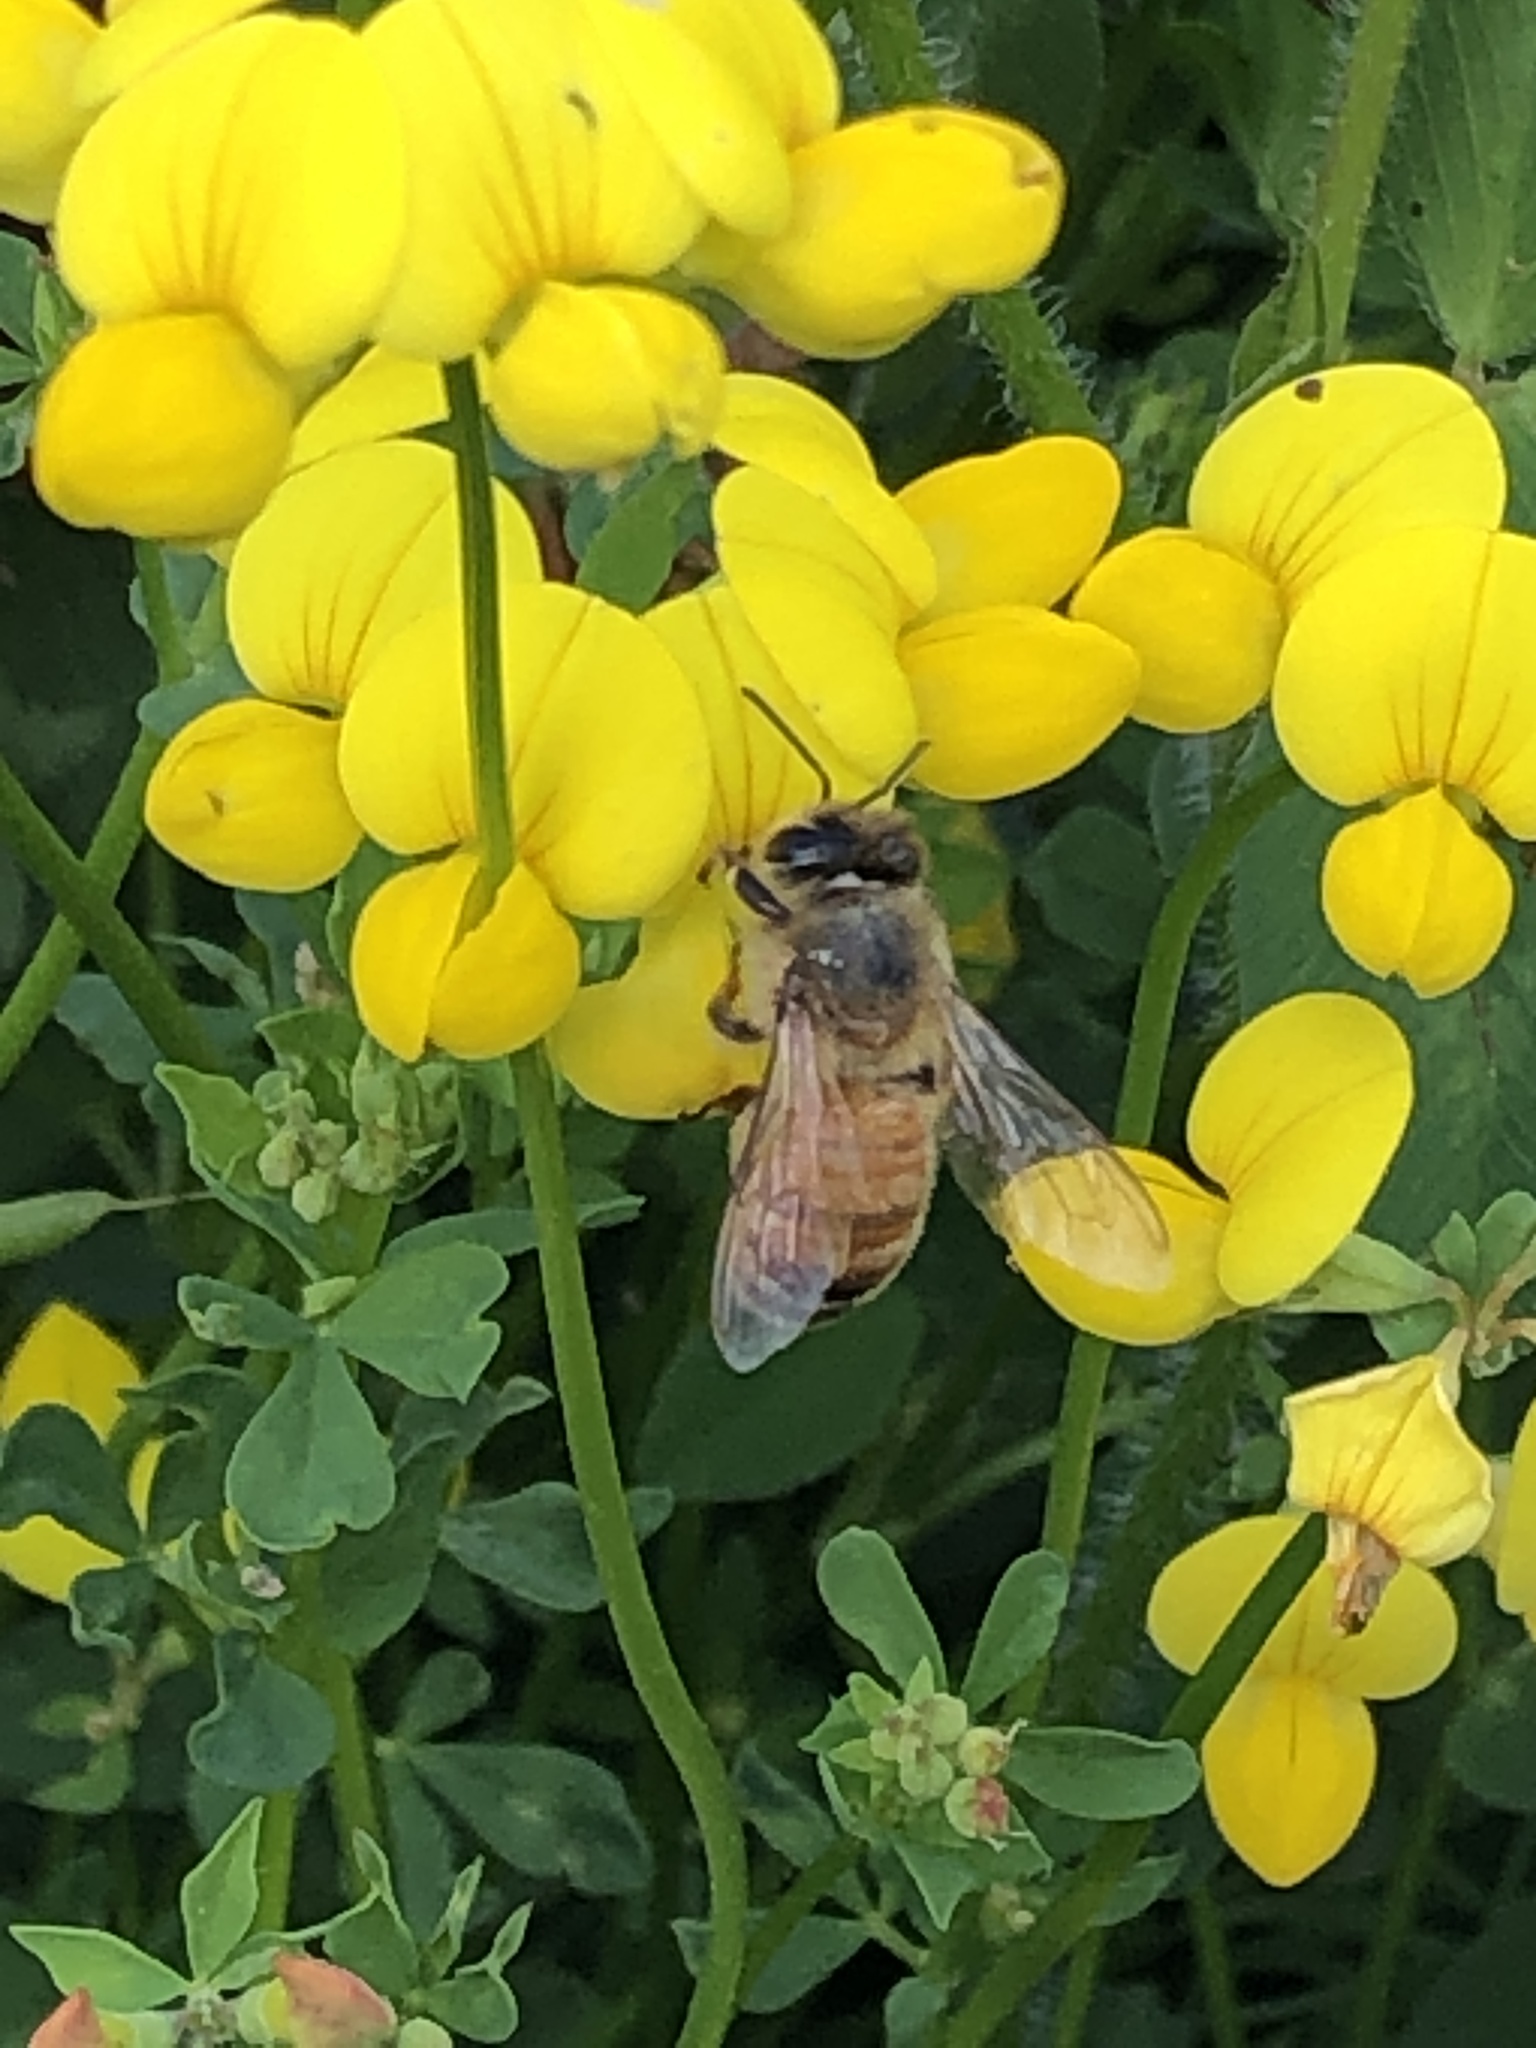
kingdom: Animalia
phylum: Arthropoda
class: Insecta
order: Hymenoptera
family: Apidae
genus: Apis
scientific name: Apis mellifera
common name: Honey bee
